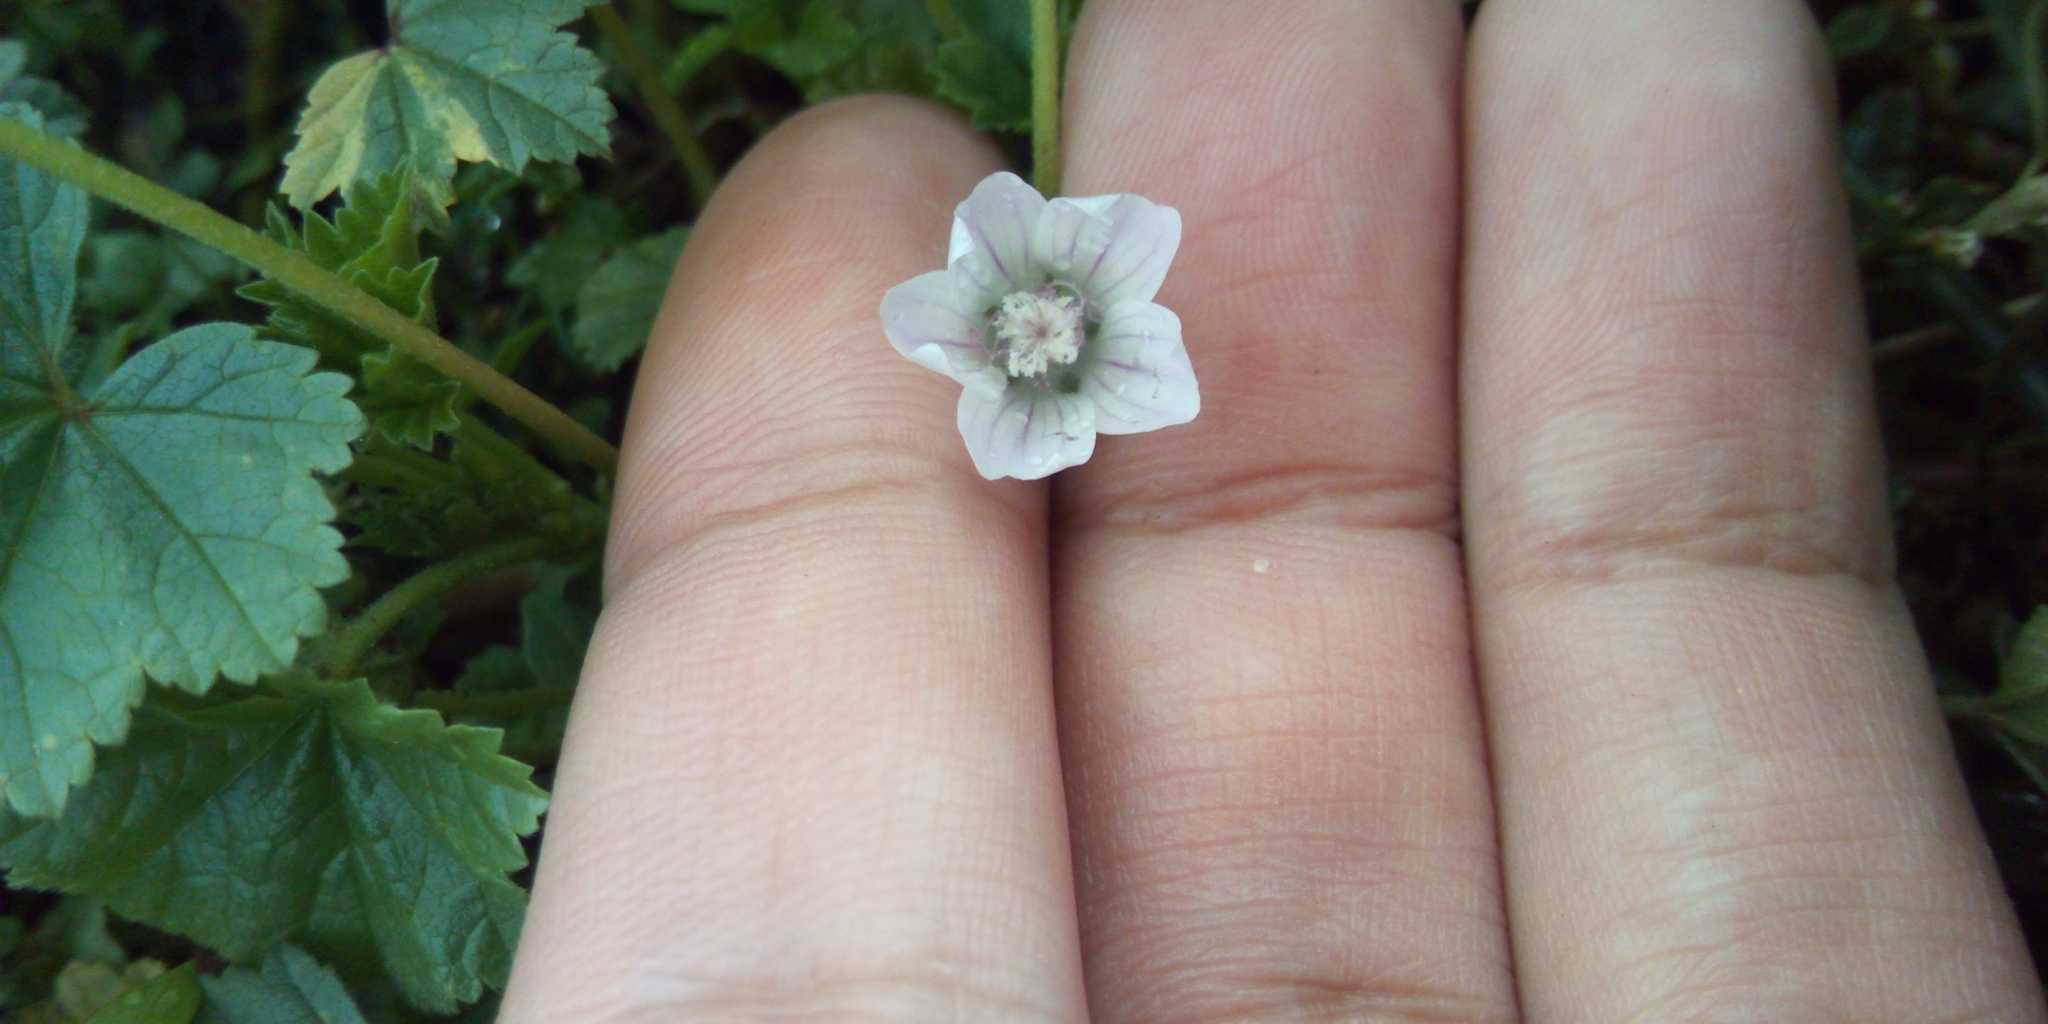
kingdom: Plantae
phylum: Tracheophyta
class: Magnoliopsida
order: Malvales
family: Malvaceae
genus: Malva
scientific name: Malva neglecta
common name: Common mallow
